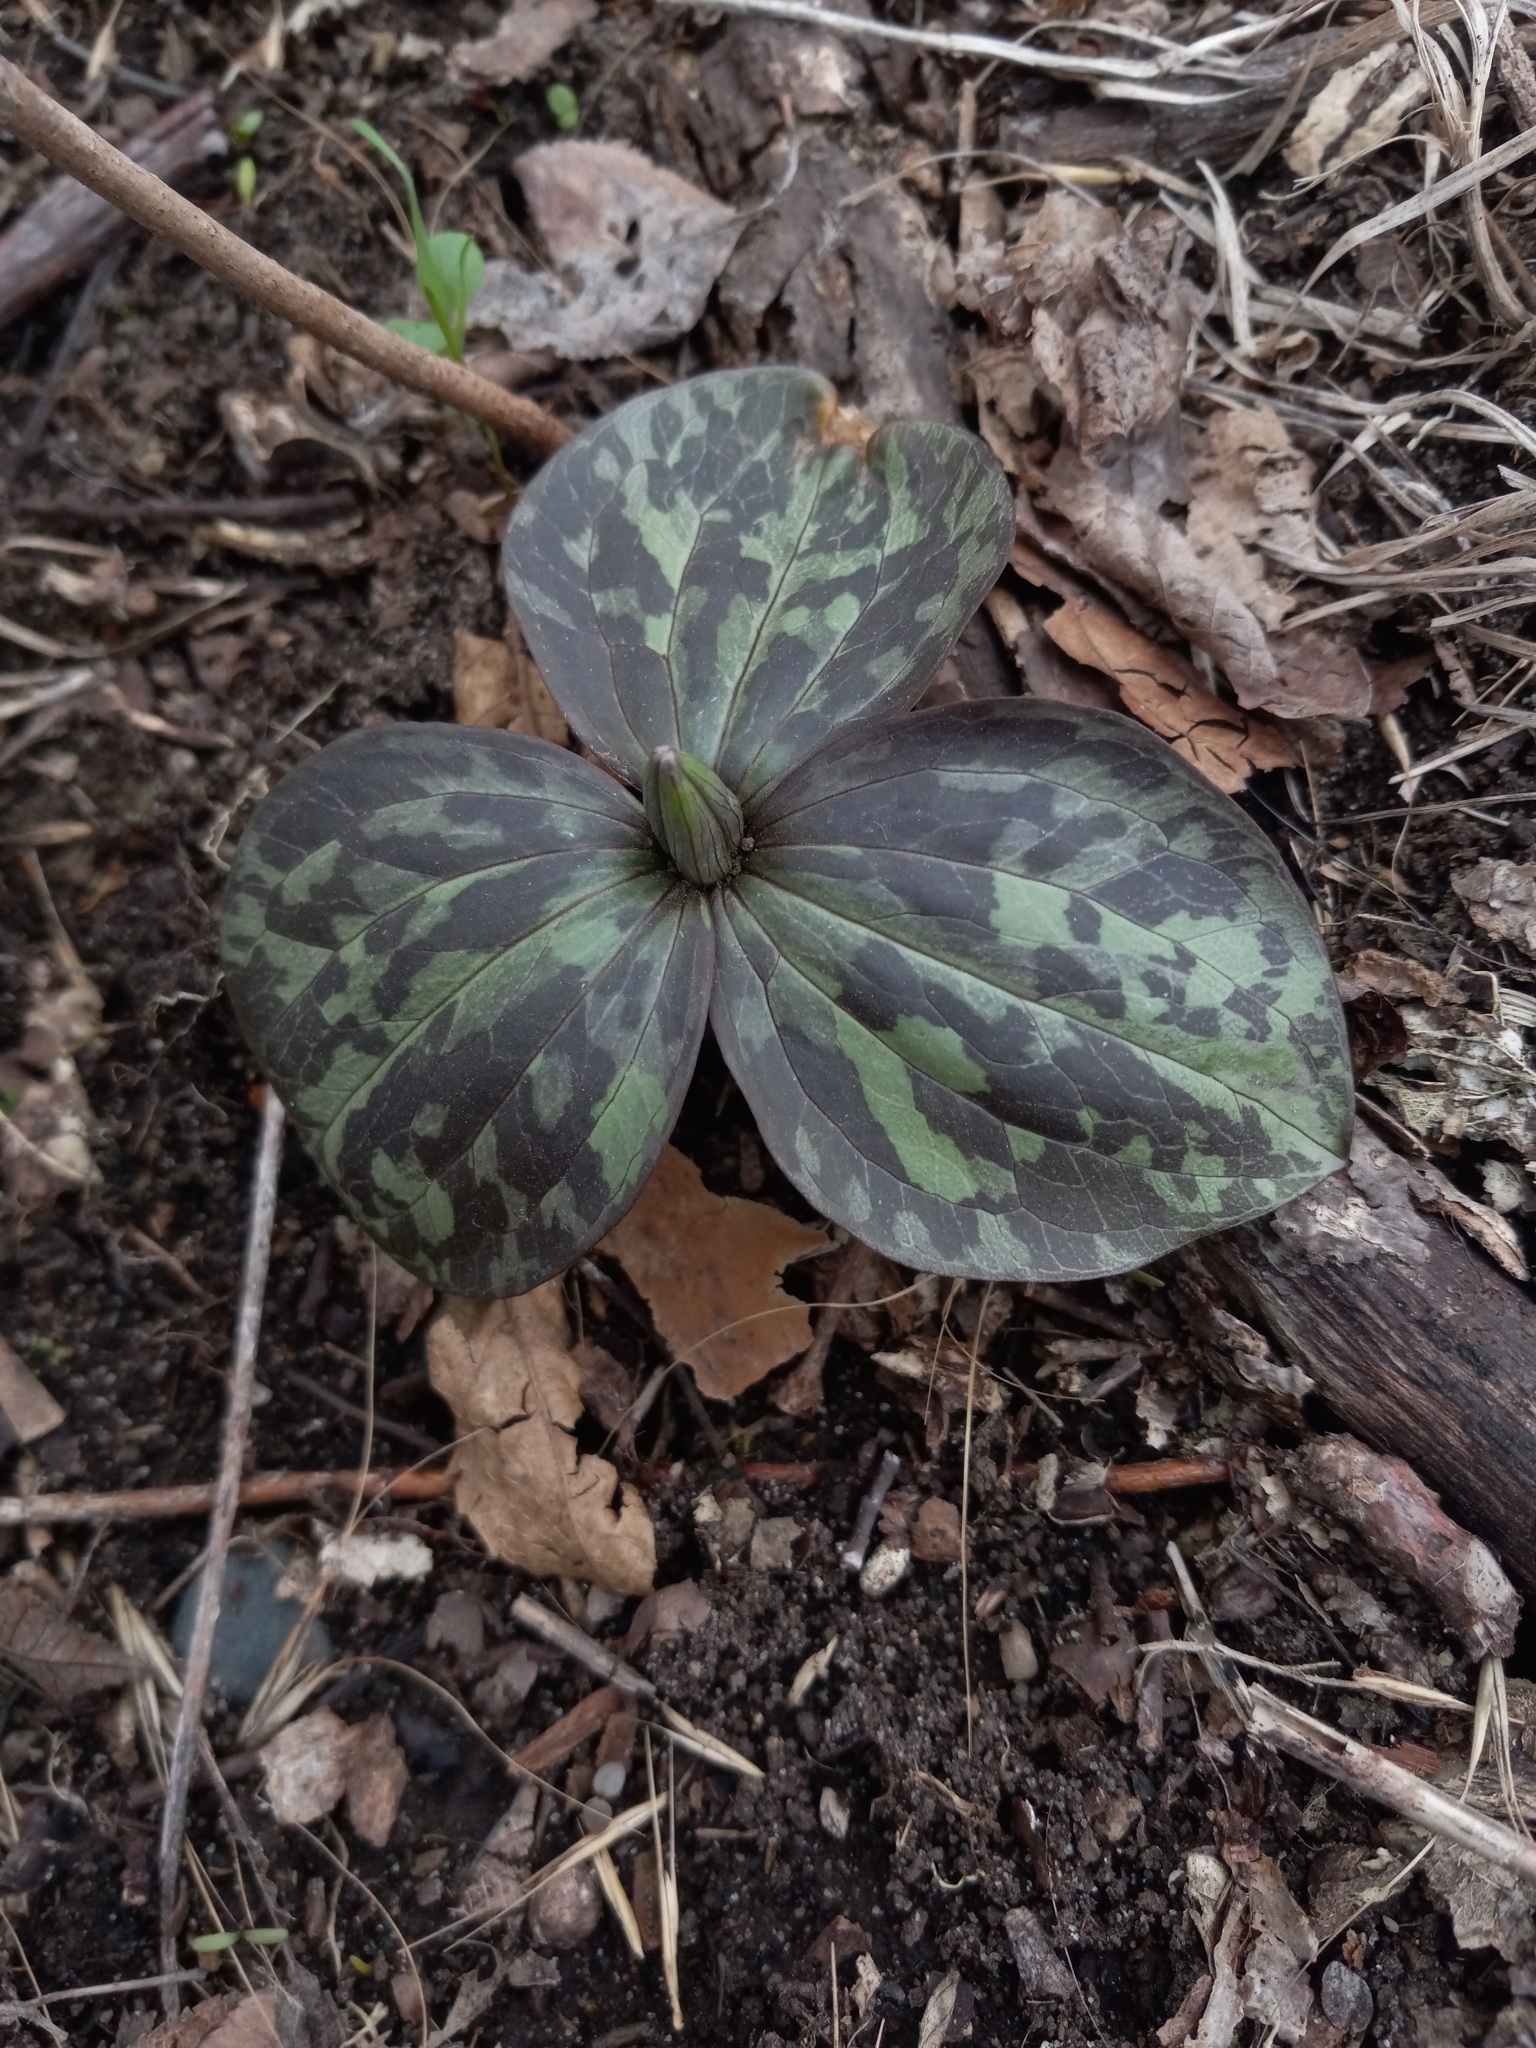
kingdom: Plantae
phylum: Tracheophyta
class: Liliopsida
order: Liliales
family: Melanthiaceae
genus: Trillium
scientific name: Trillium recurvatum
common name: Bloody butcher
